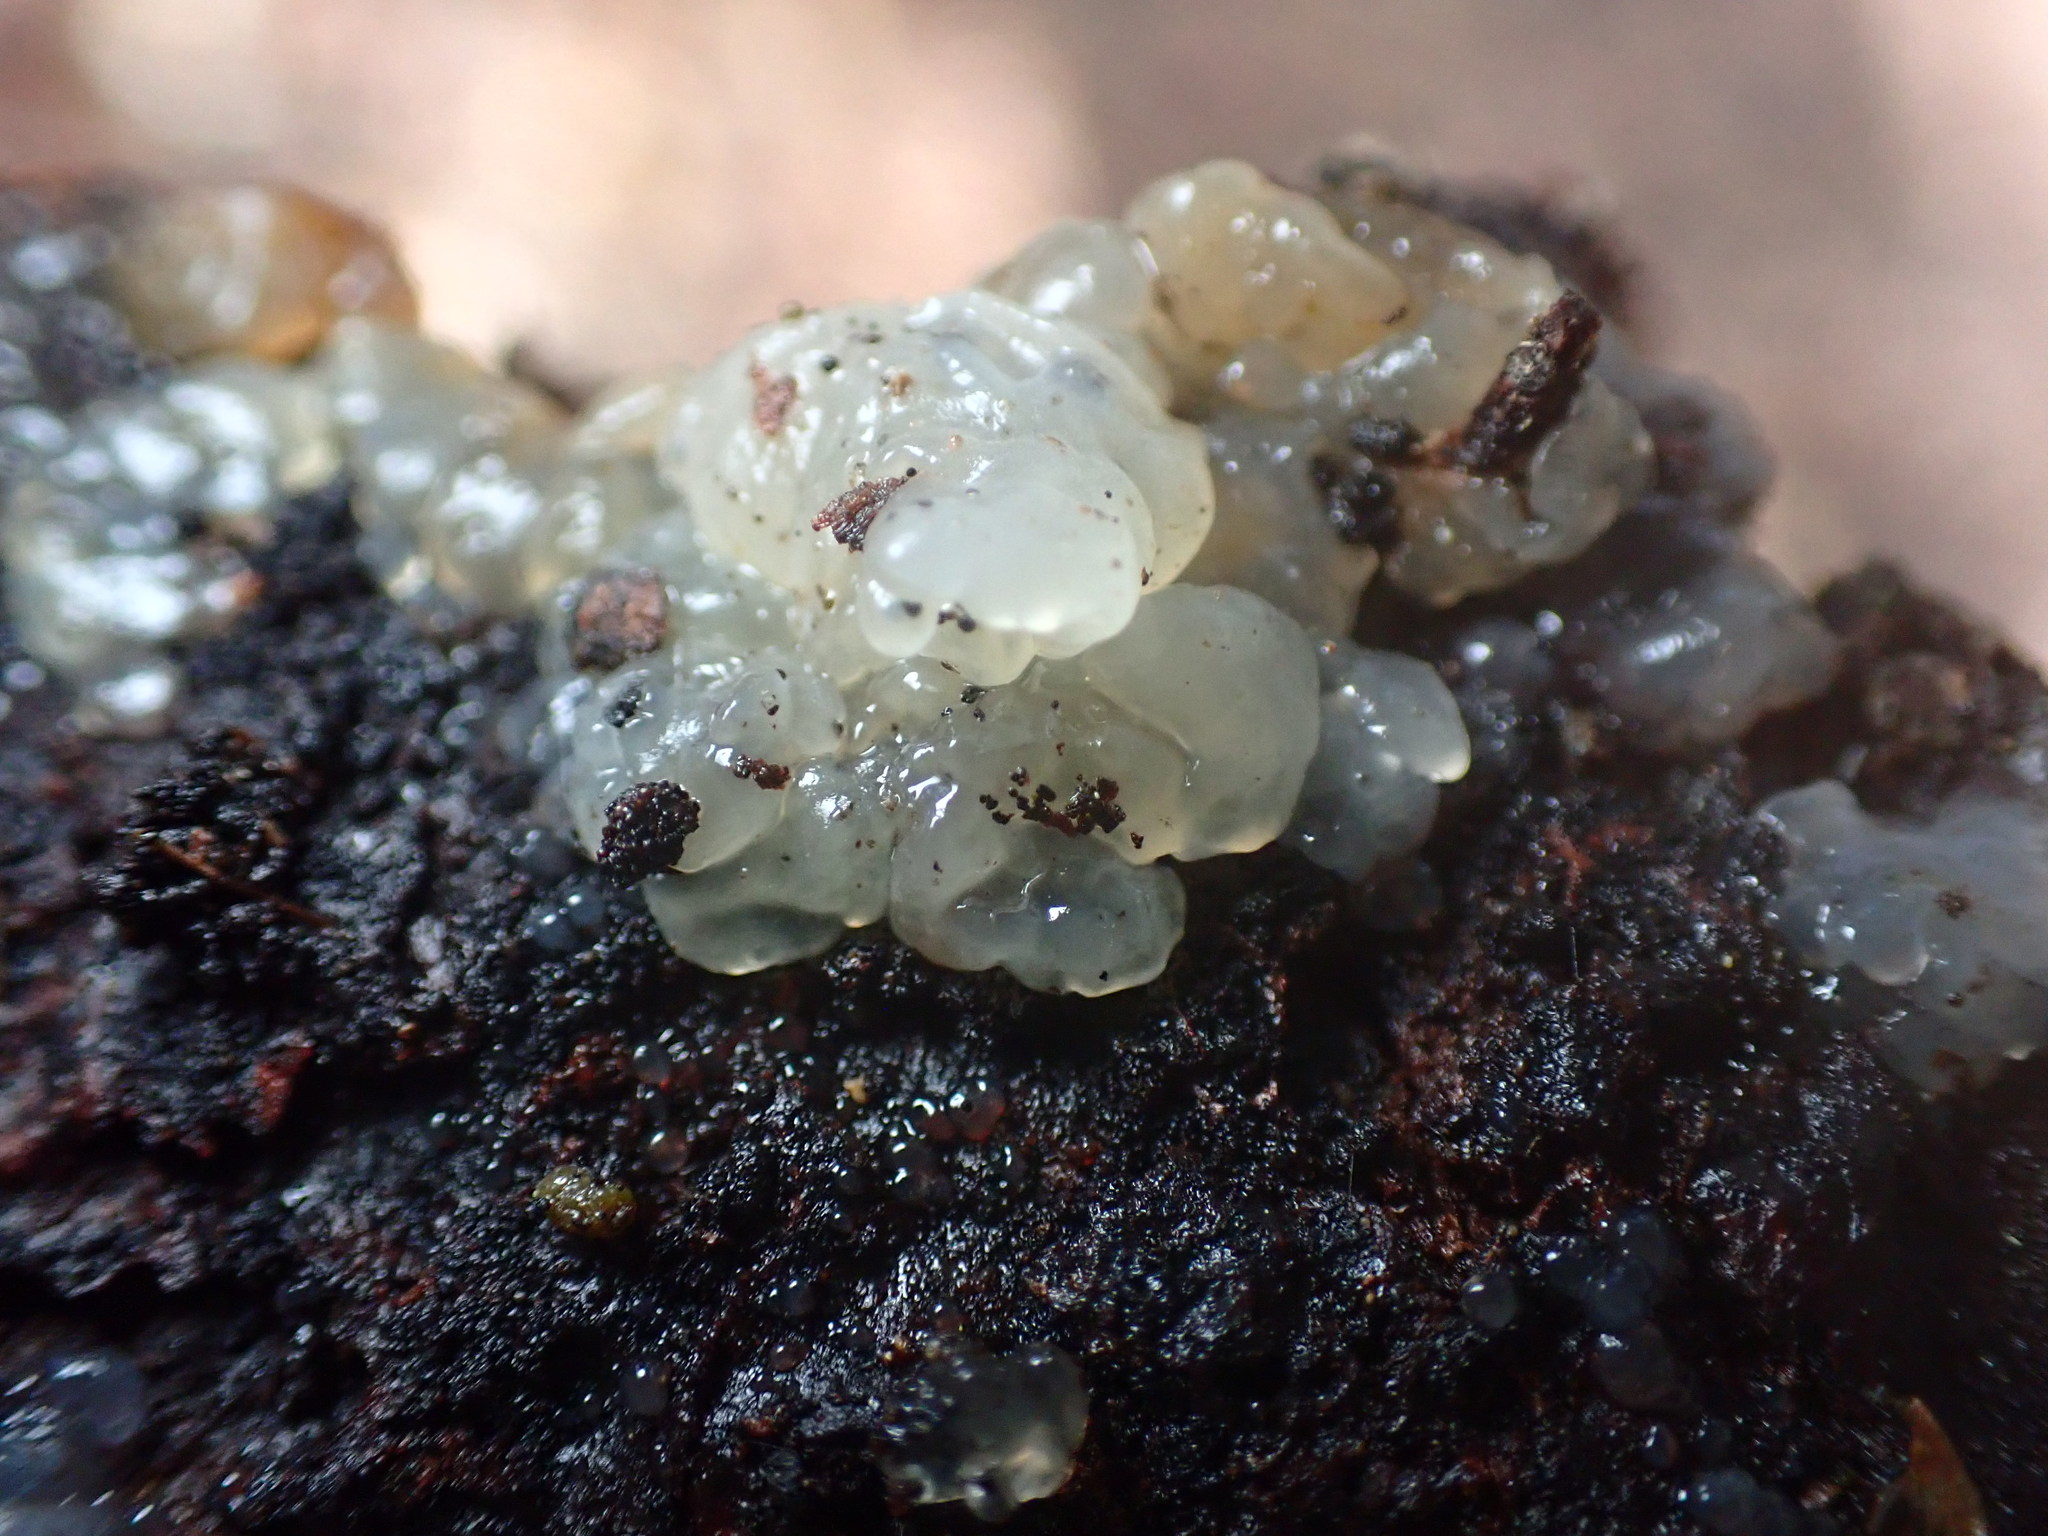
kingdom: Fungi
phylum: Basidiomycota
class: Agaricomycetes
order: Auriculariales
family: Hyaloriaceae
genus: Myxarium
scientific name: Myxarium nucleatum
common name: Crystal brain fungus
